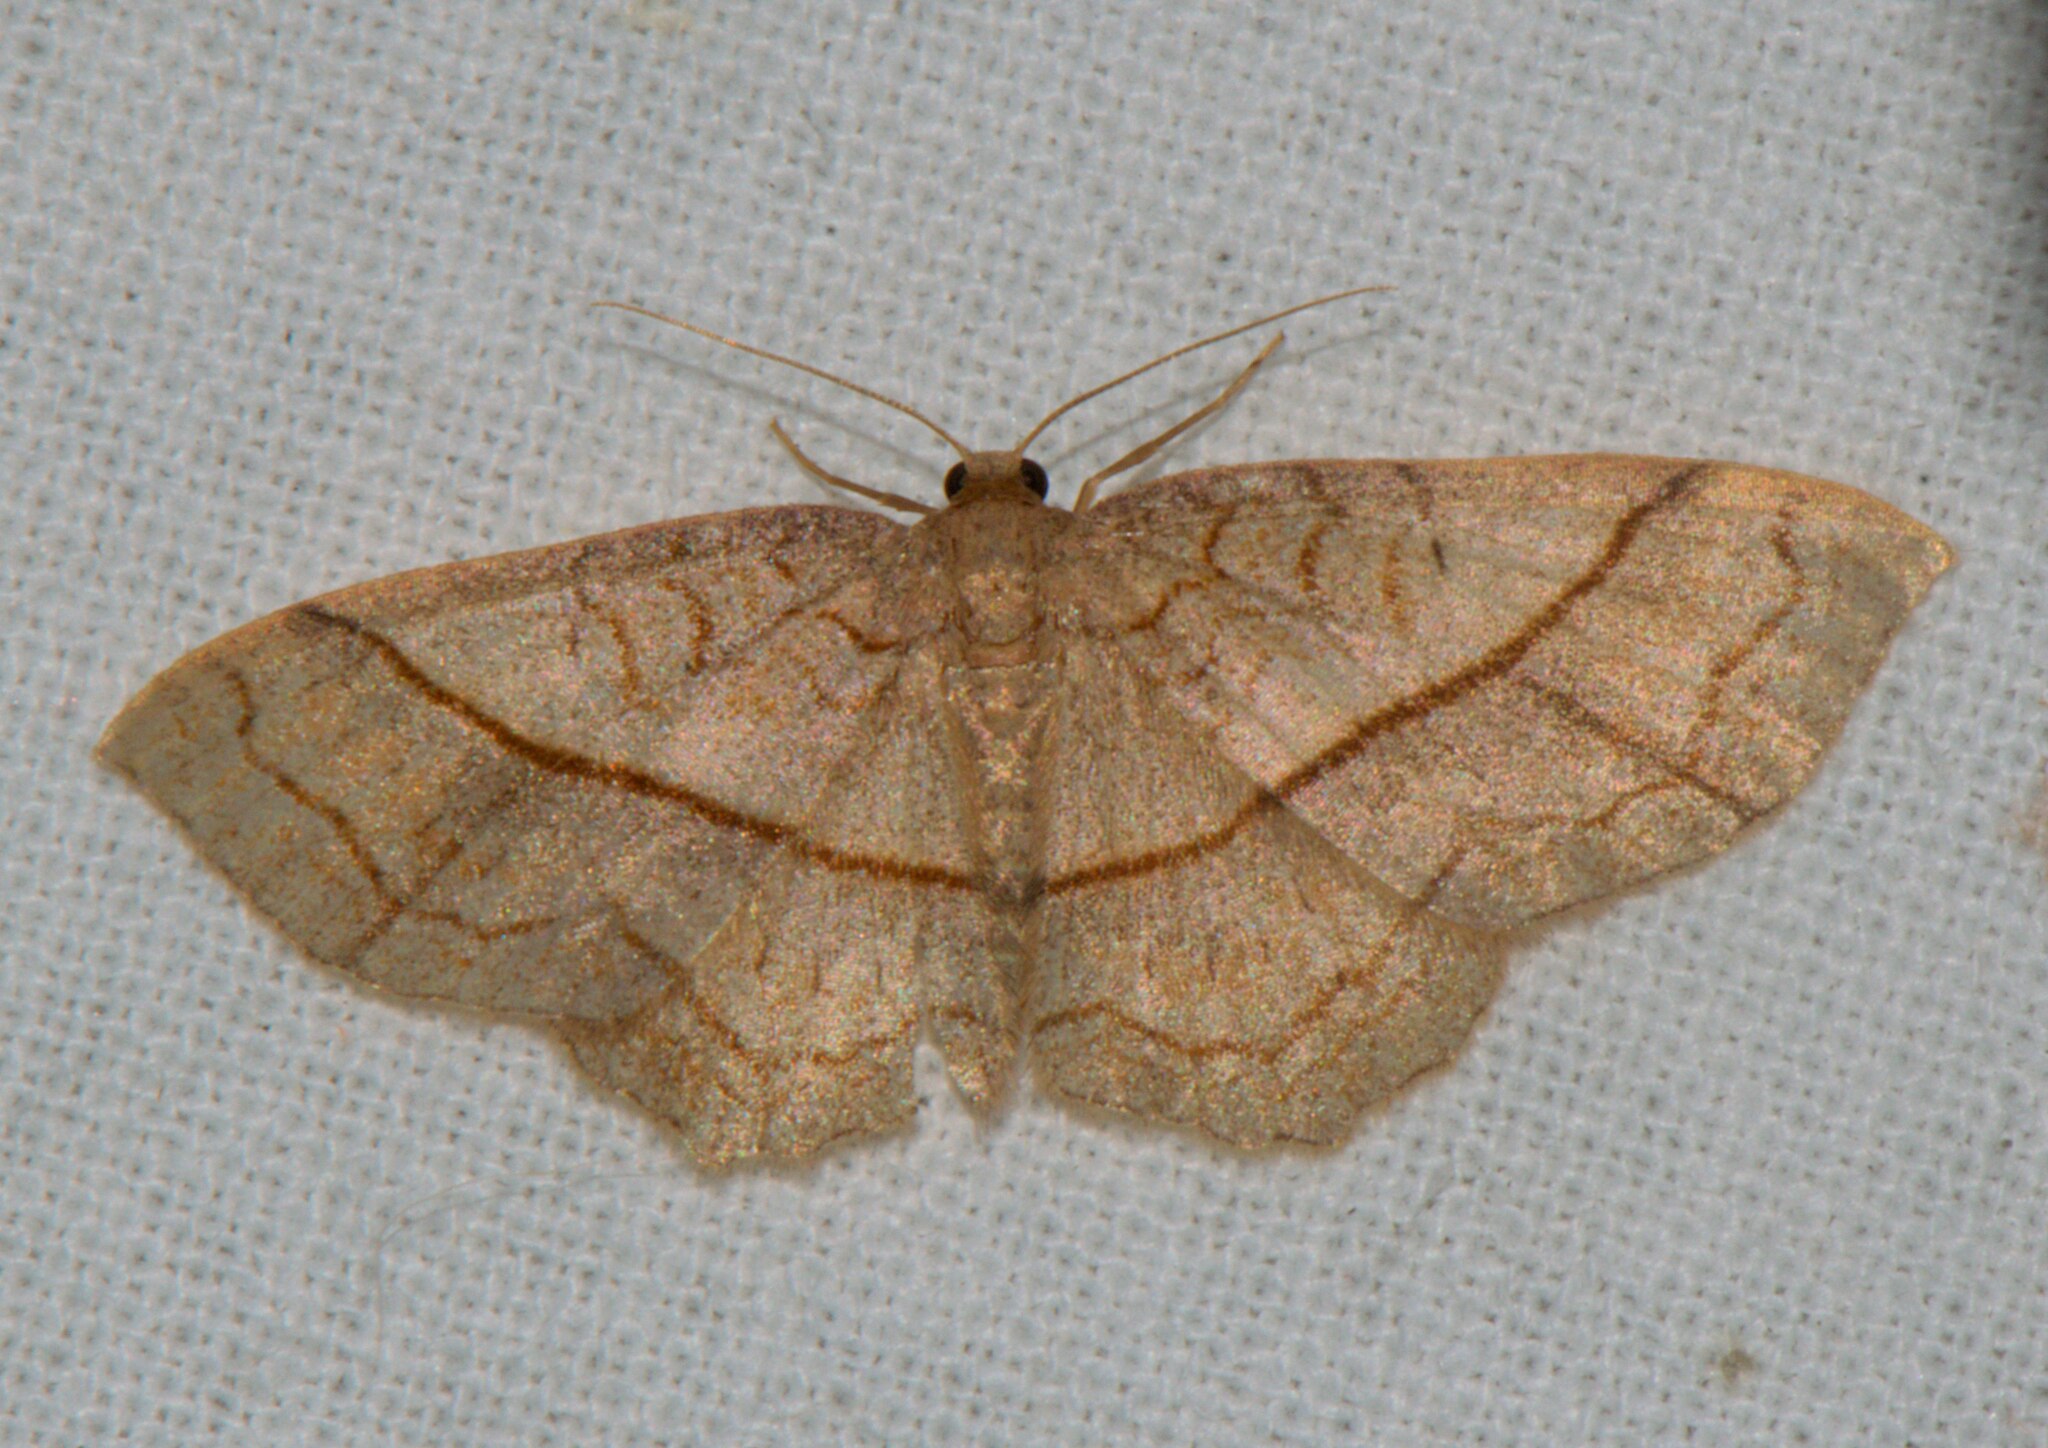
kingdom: Animalia
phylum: Arthropoda
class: Insecta
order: Lepidoptera
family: Geometridae
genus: Hydrelia
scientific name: Hydrelia sericea
